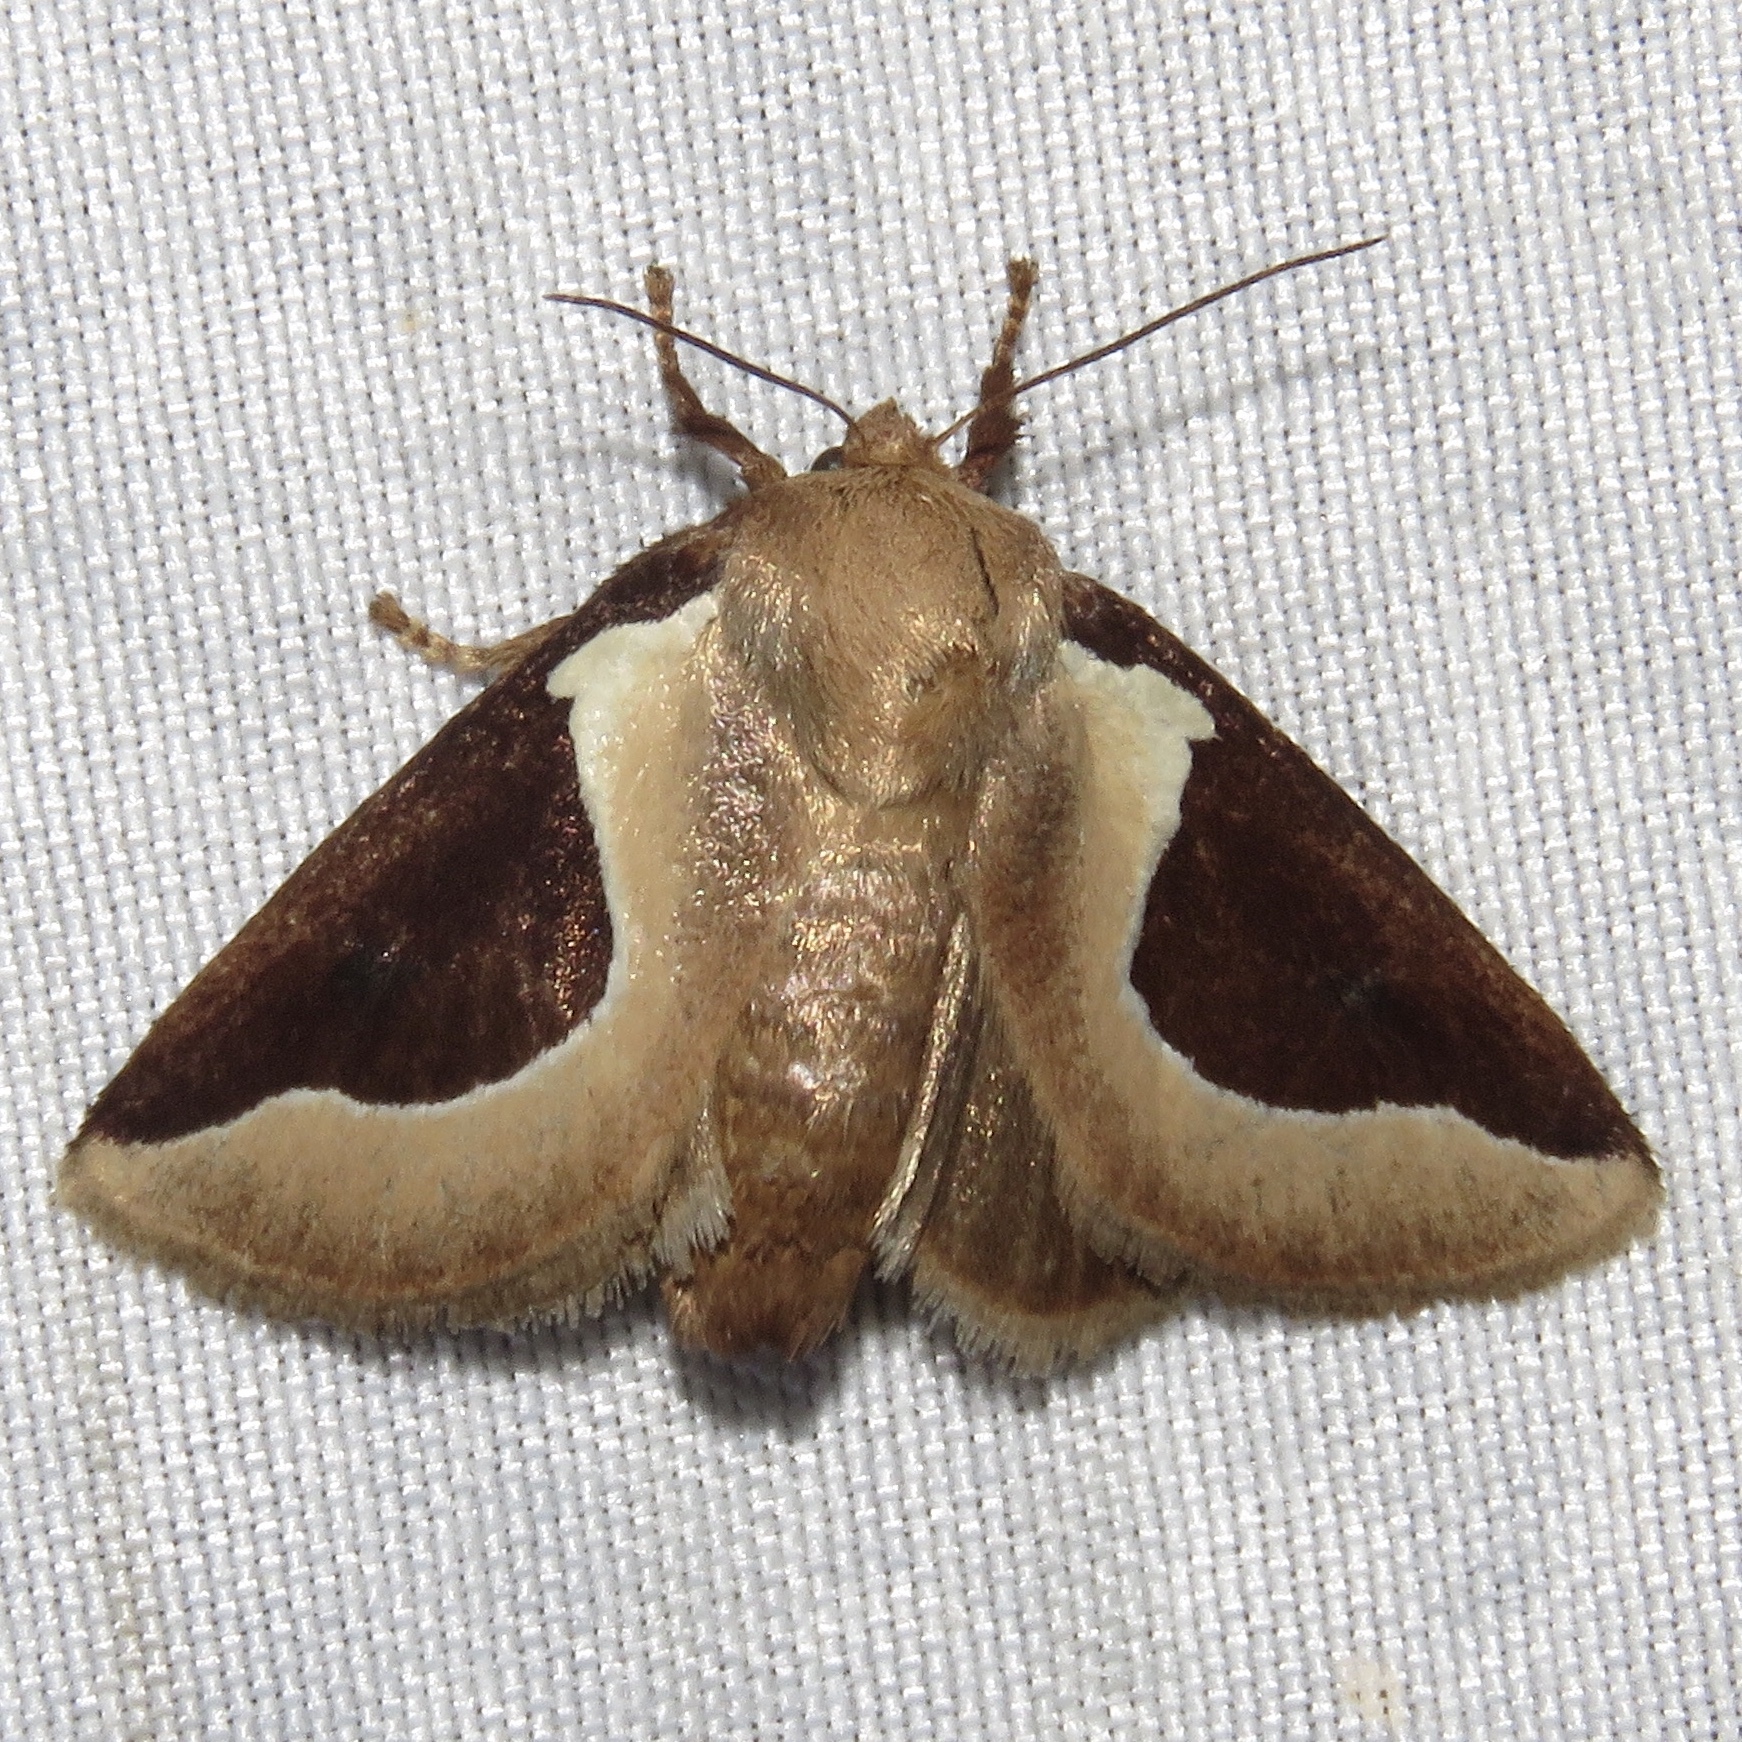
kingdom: Animalia
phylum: Arthropoda
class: Insecta
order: Lepidoptera
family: Limacodidae
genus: Prolimacodes
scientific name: Prolimacodes badia
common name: Skiff moth
